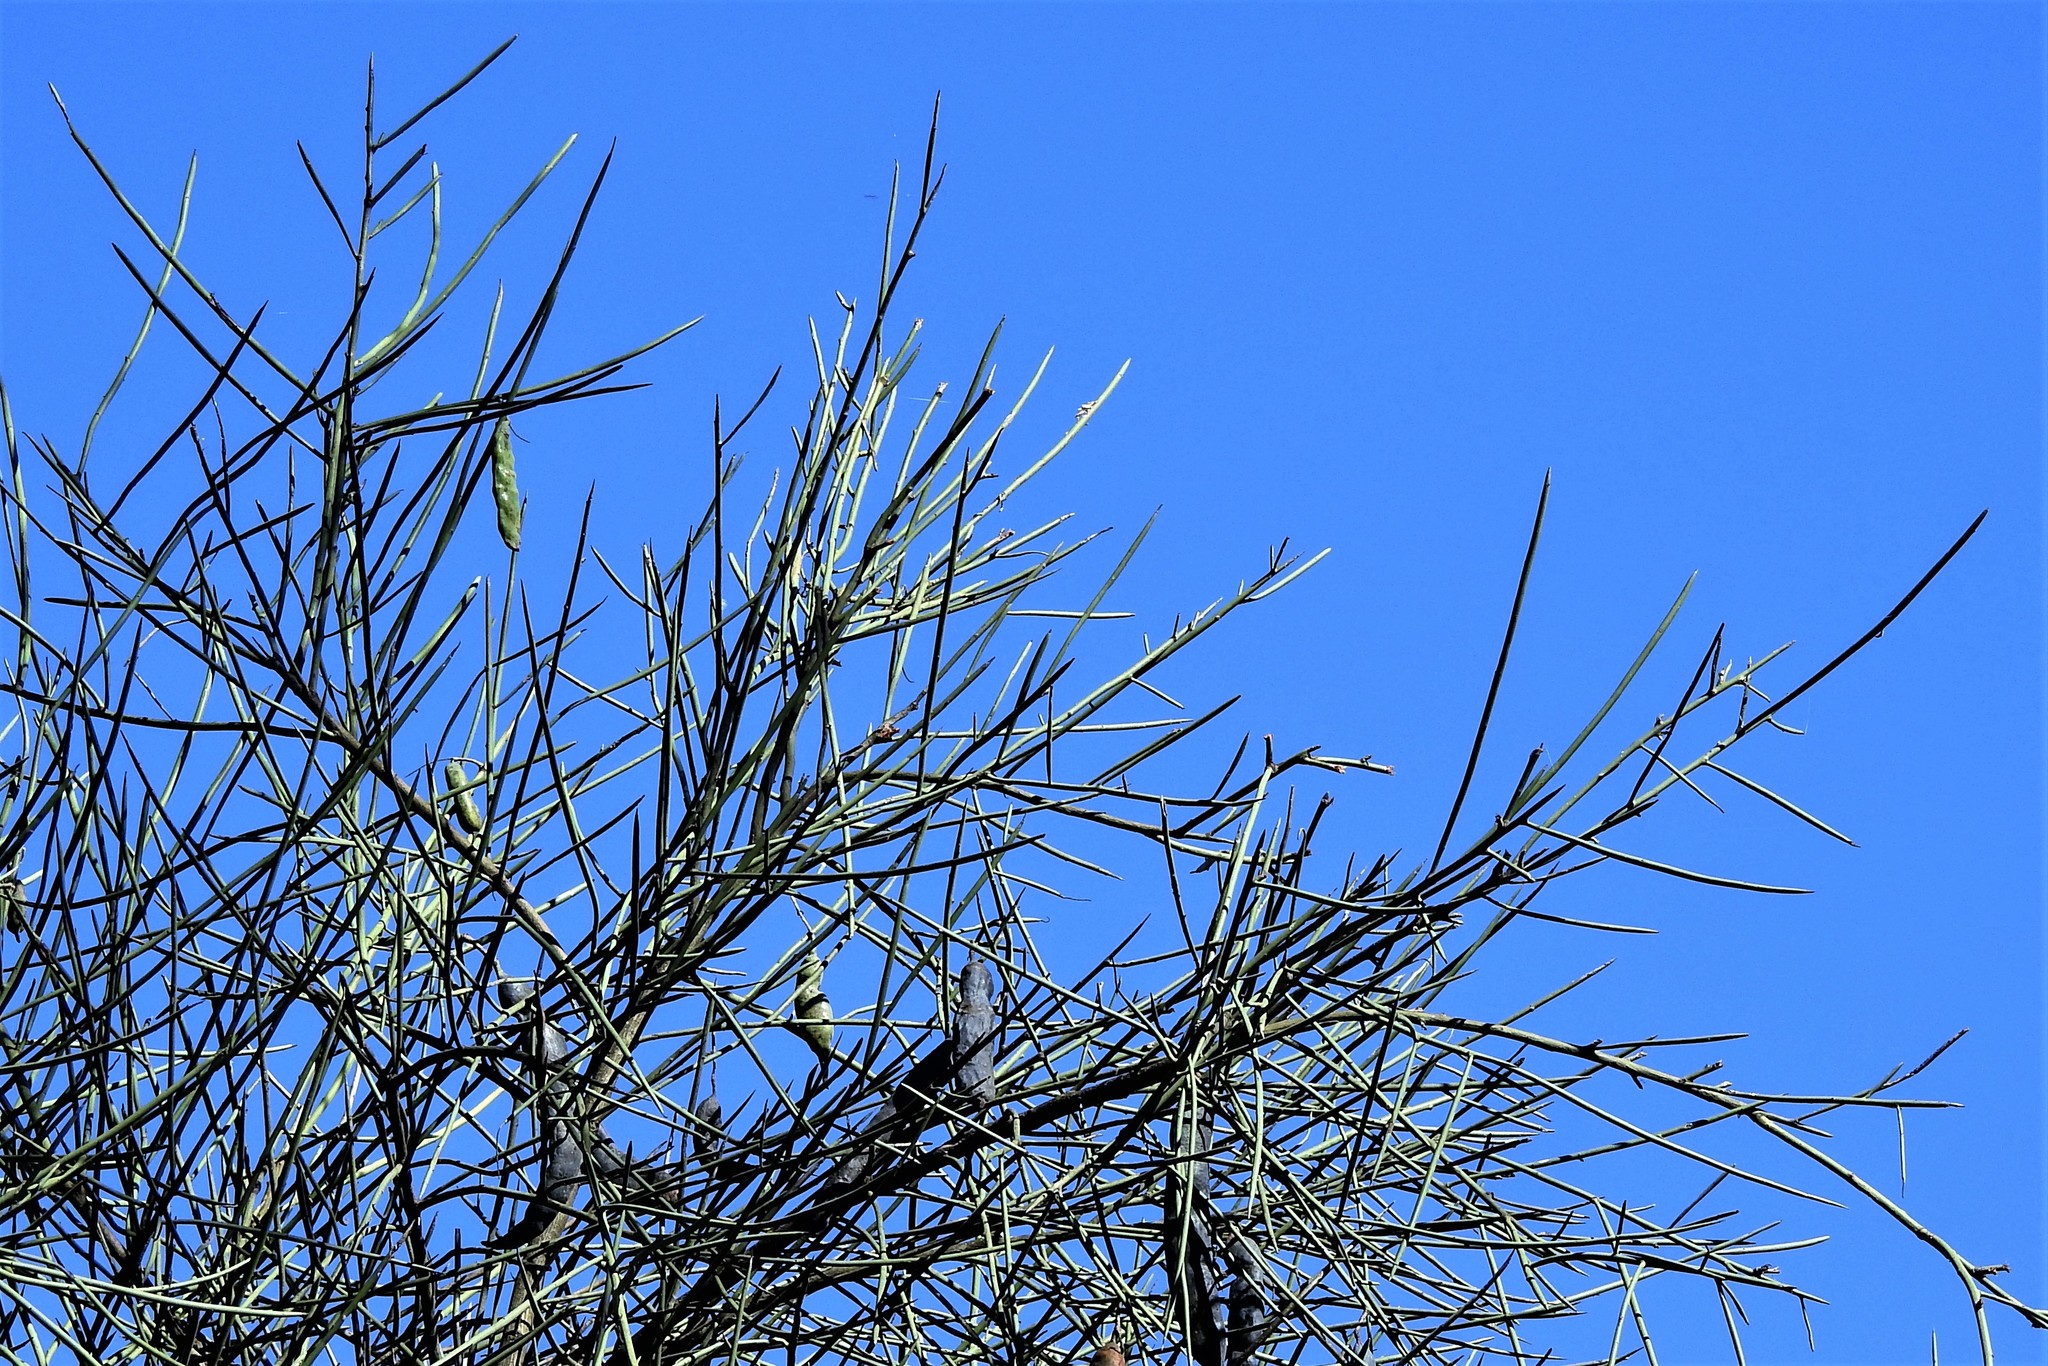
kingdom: Plantae
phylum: Tracheophyta
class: Magnoliopsida
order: Fabales
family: Fabaceae
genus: Prosopis
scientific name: Prosopis kuntzei
